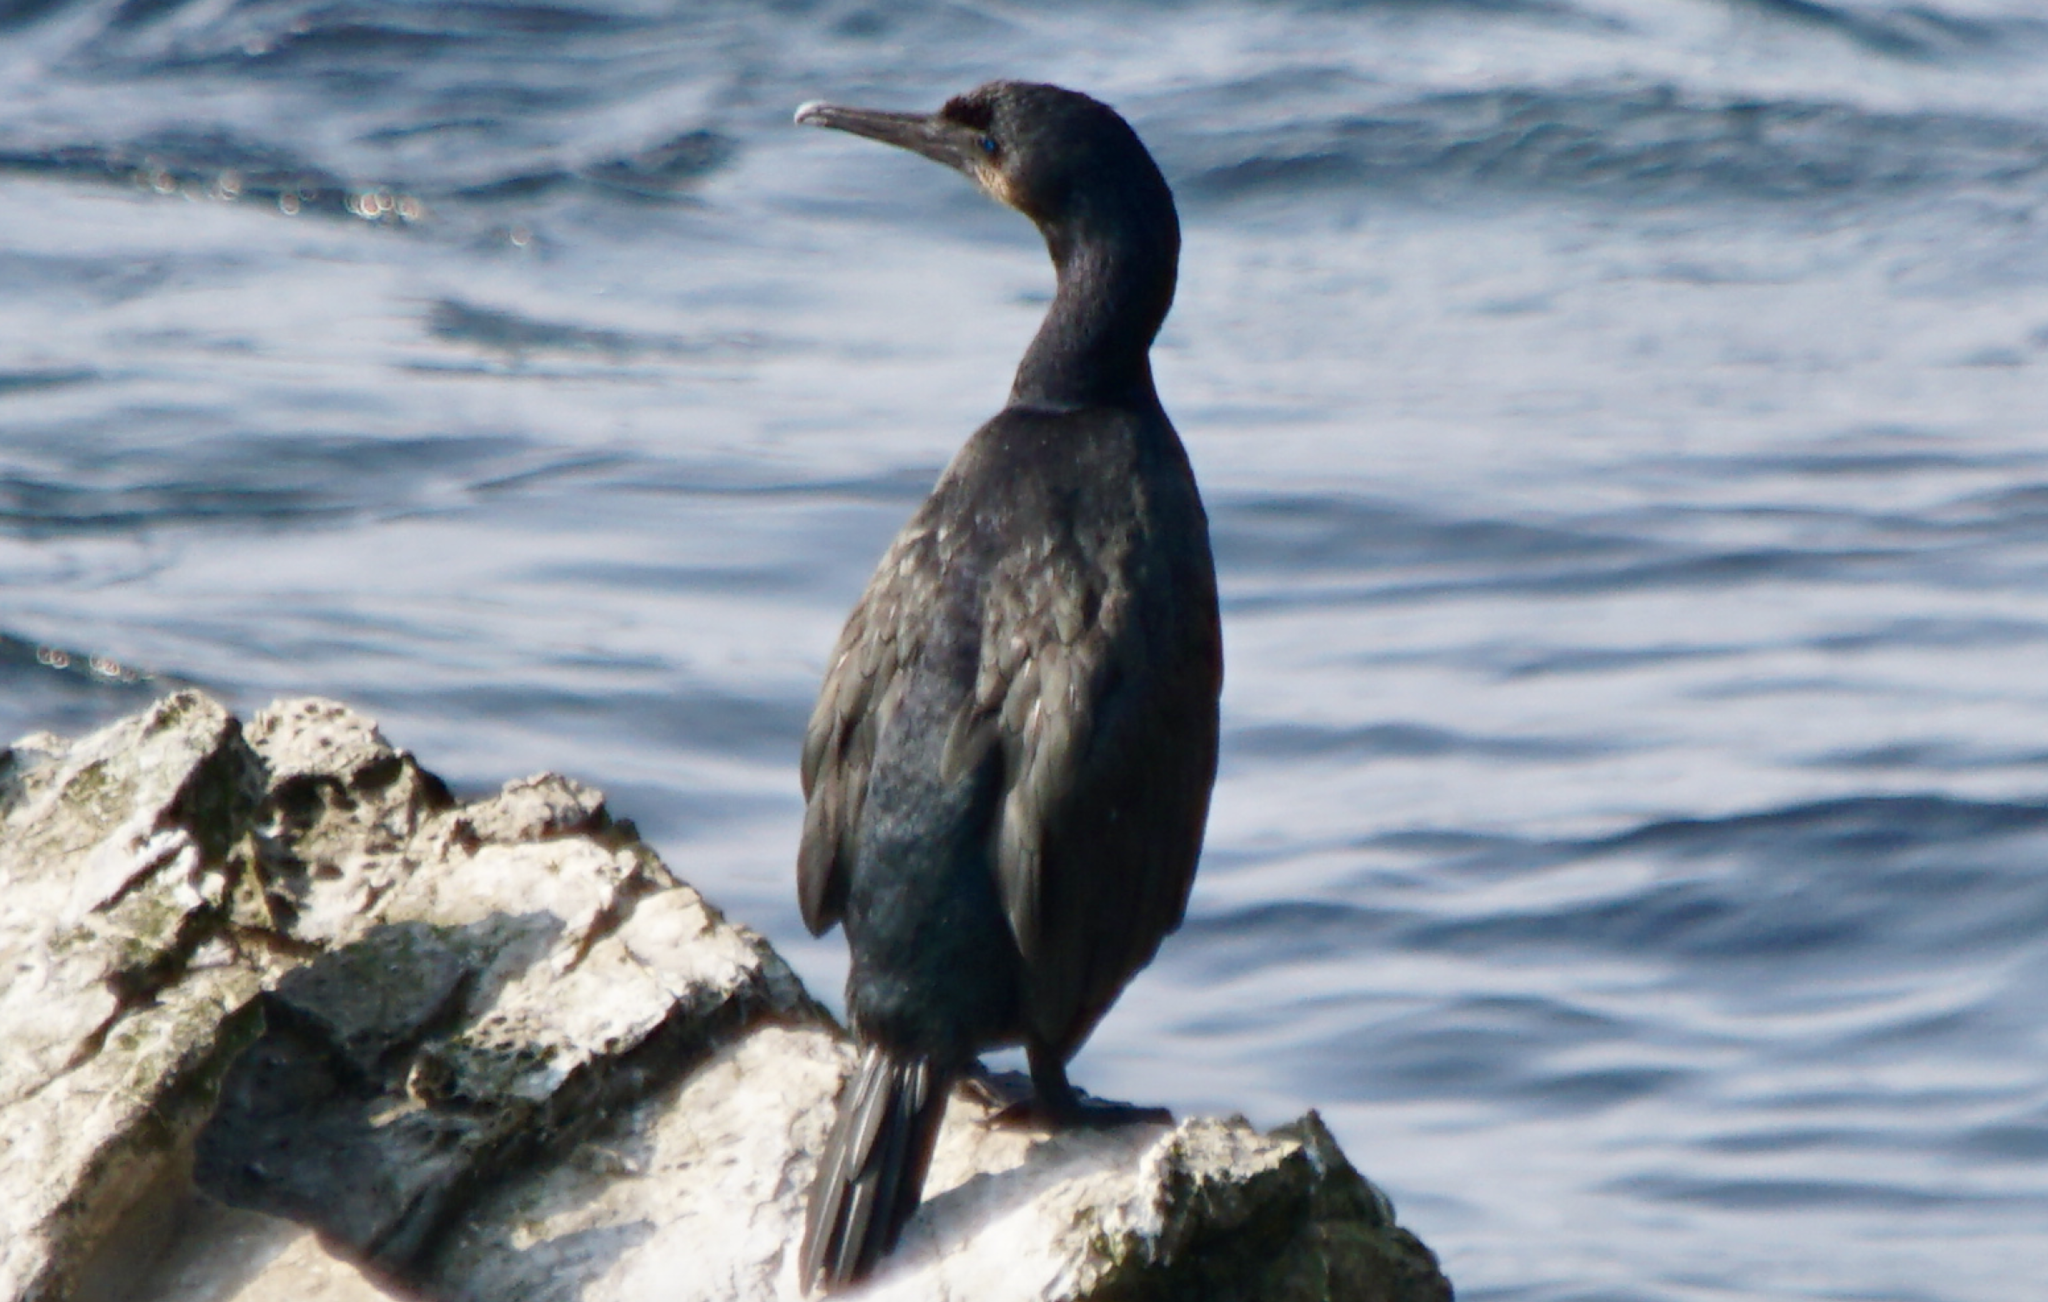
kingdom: Animalia
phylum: Chordata
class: Aves
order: Suliformes
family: Phalacrocoracidae
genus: Urile
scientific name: Urile penicillatus
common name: Brandt's cormorant
